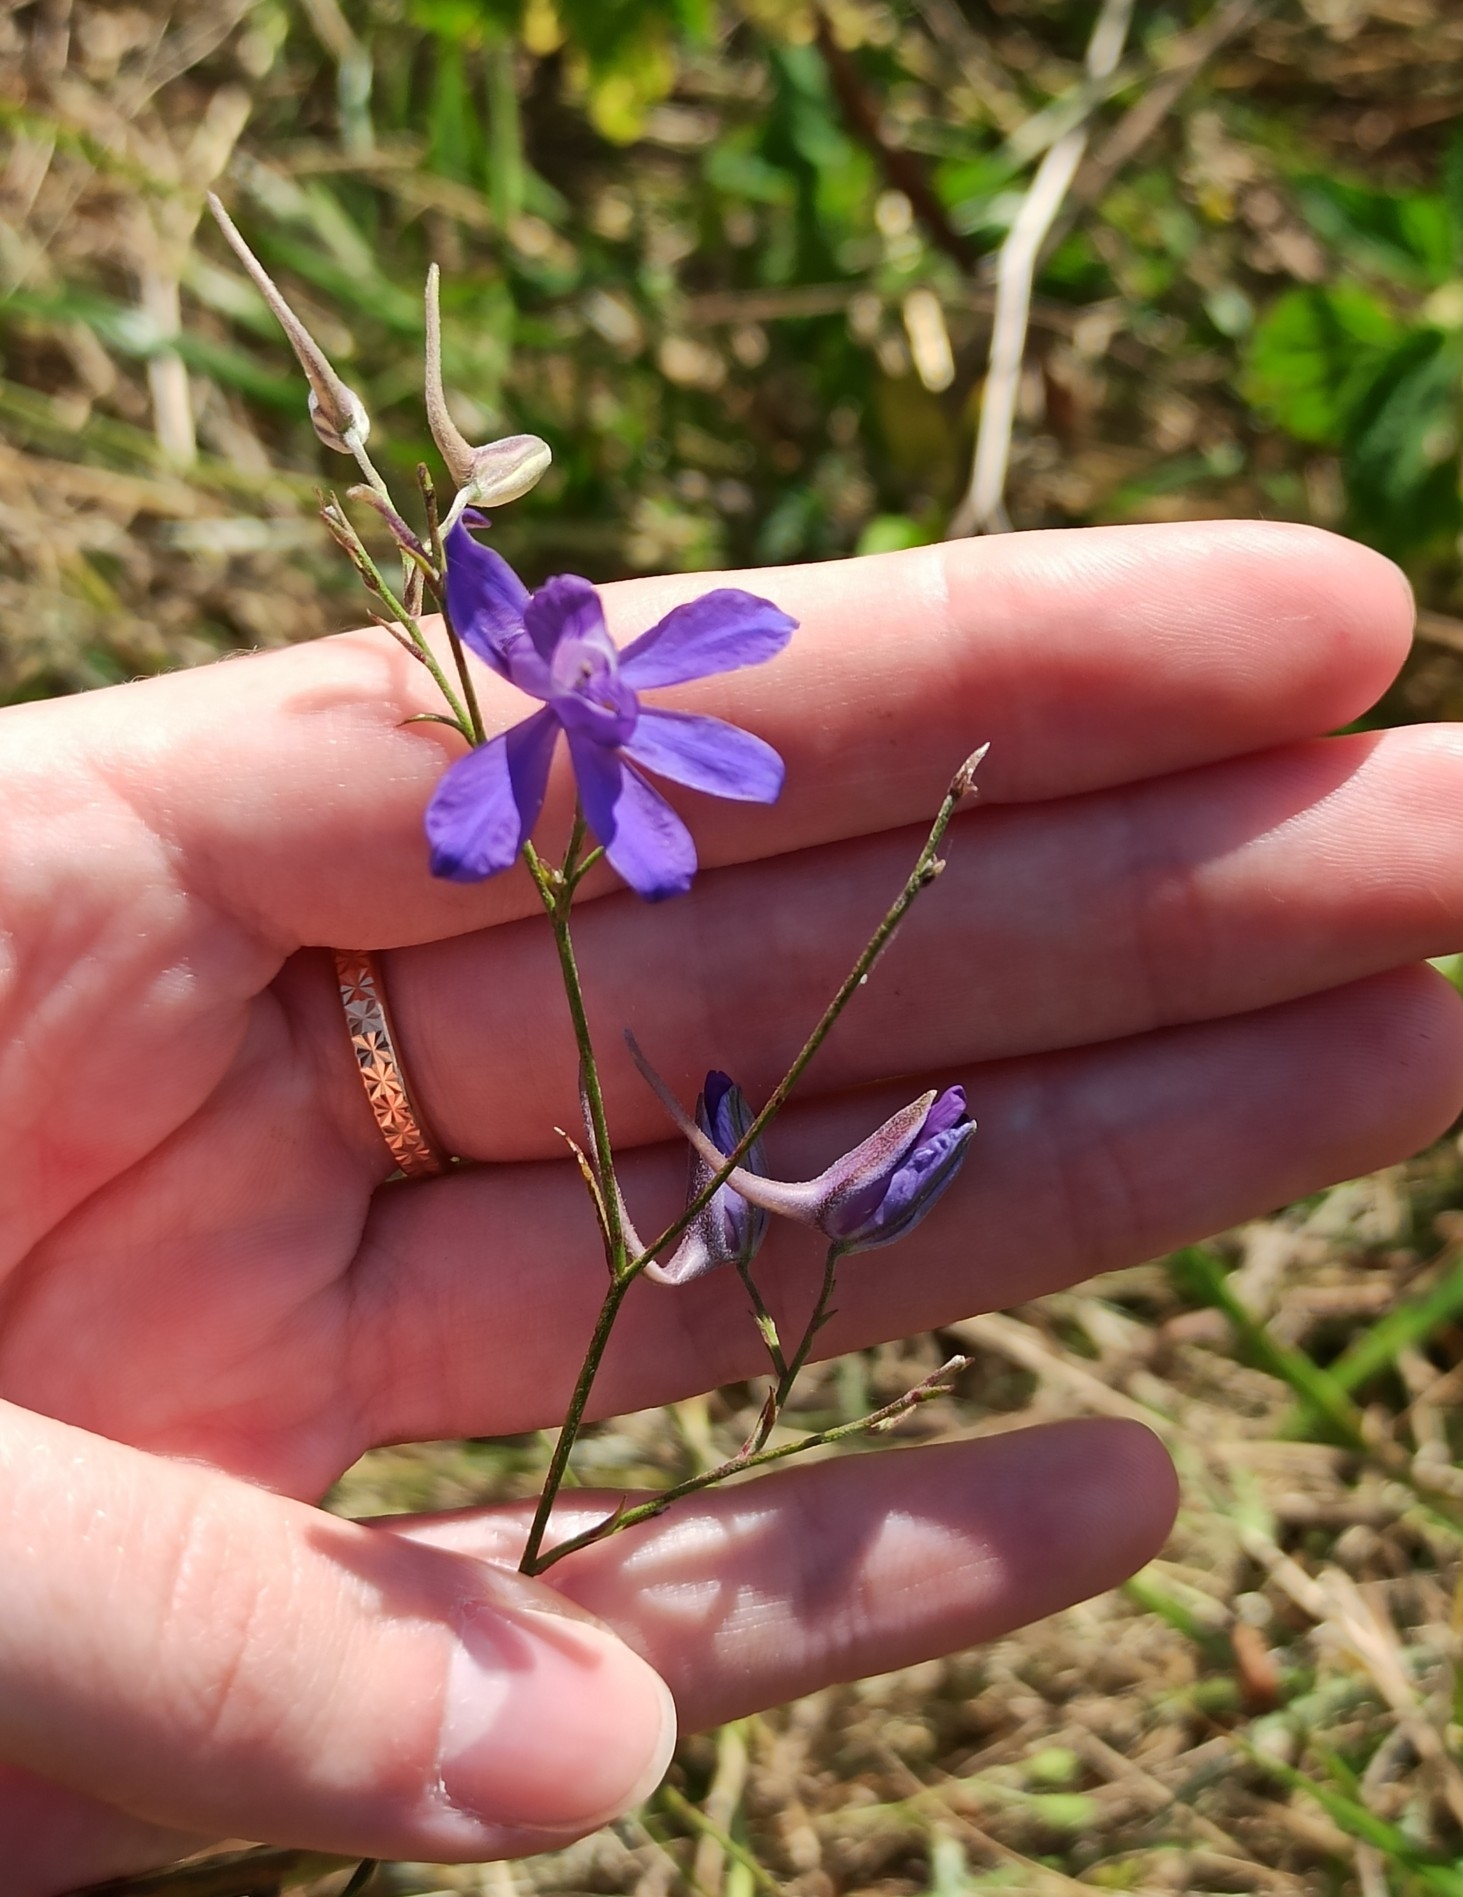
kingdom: Plantae
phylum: Tracheophyta
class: Magnoliopsida
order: Ranunculales
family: Ranunculaceae
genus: Delphinium
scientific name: Delphinium consolida
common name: Branching larkspur
